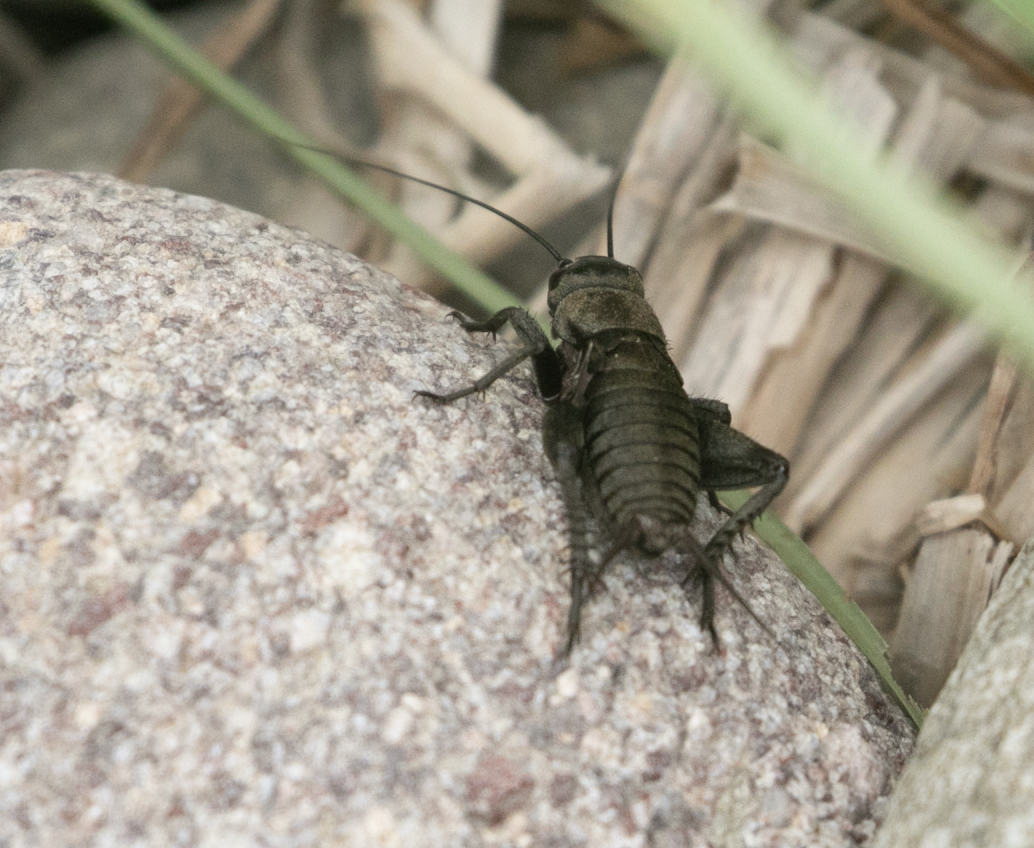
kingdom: Animalia
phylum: Arthropoda
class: Insecta
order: Orthoptera
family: Gryllidae
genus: Melanogryllus
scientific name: Melanogryllus desertus
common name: Desert cricket
